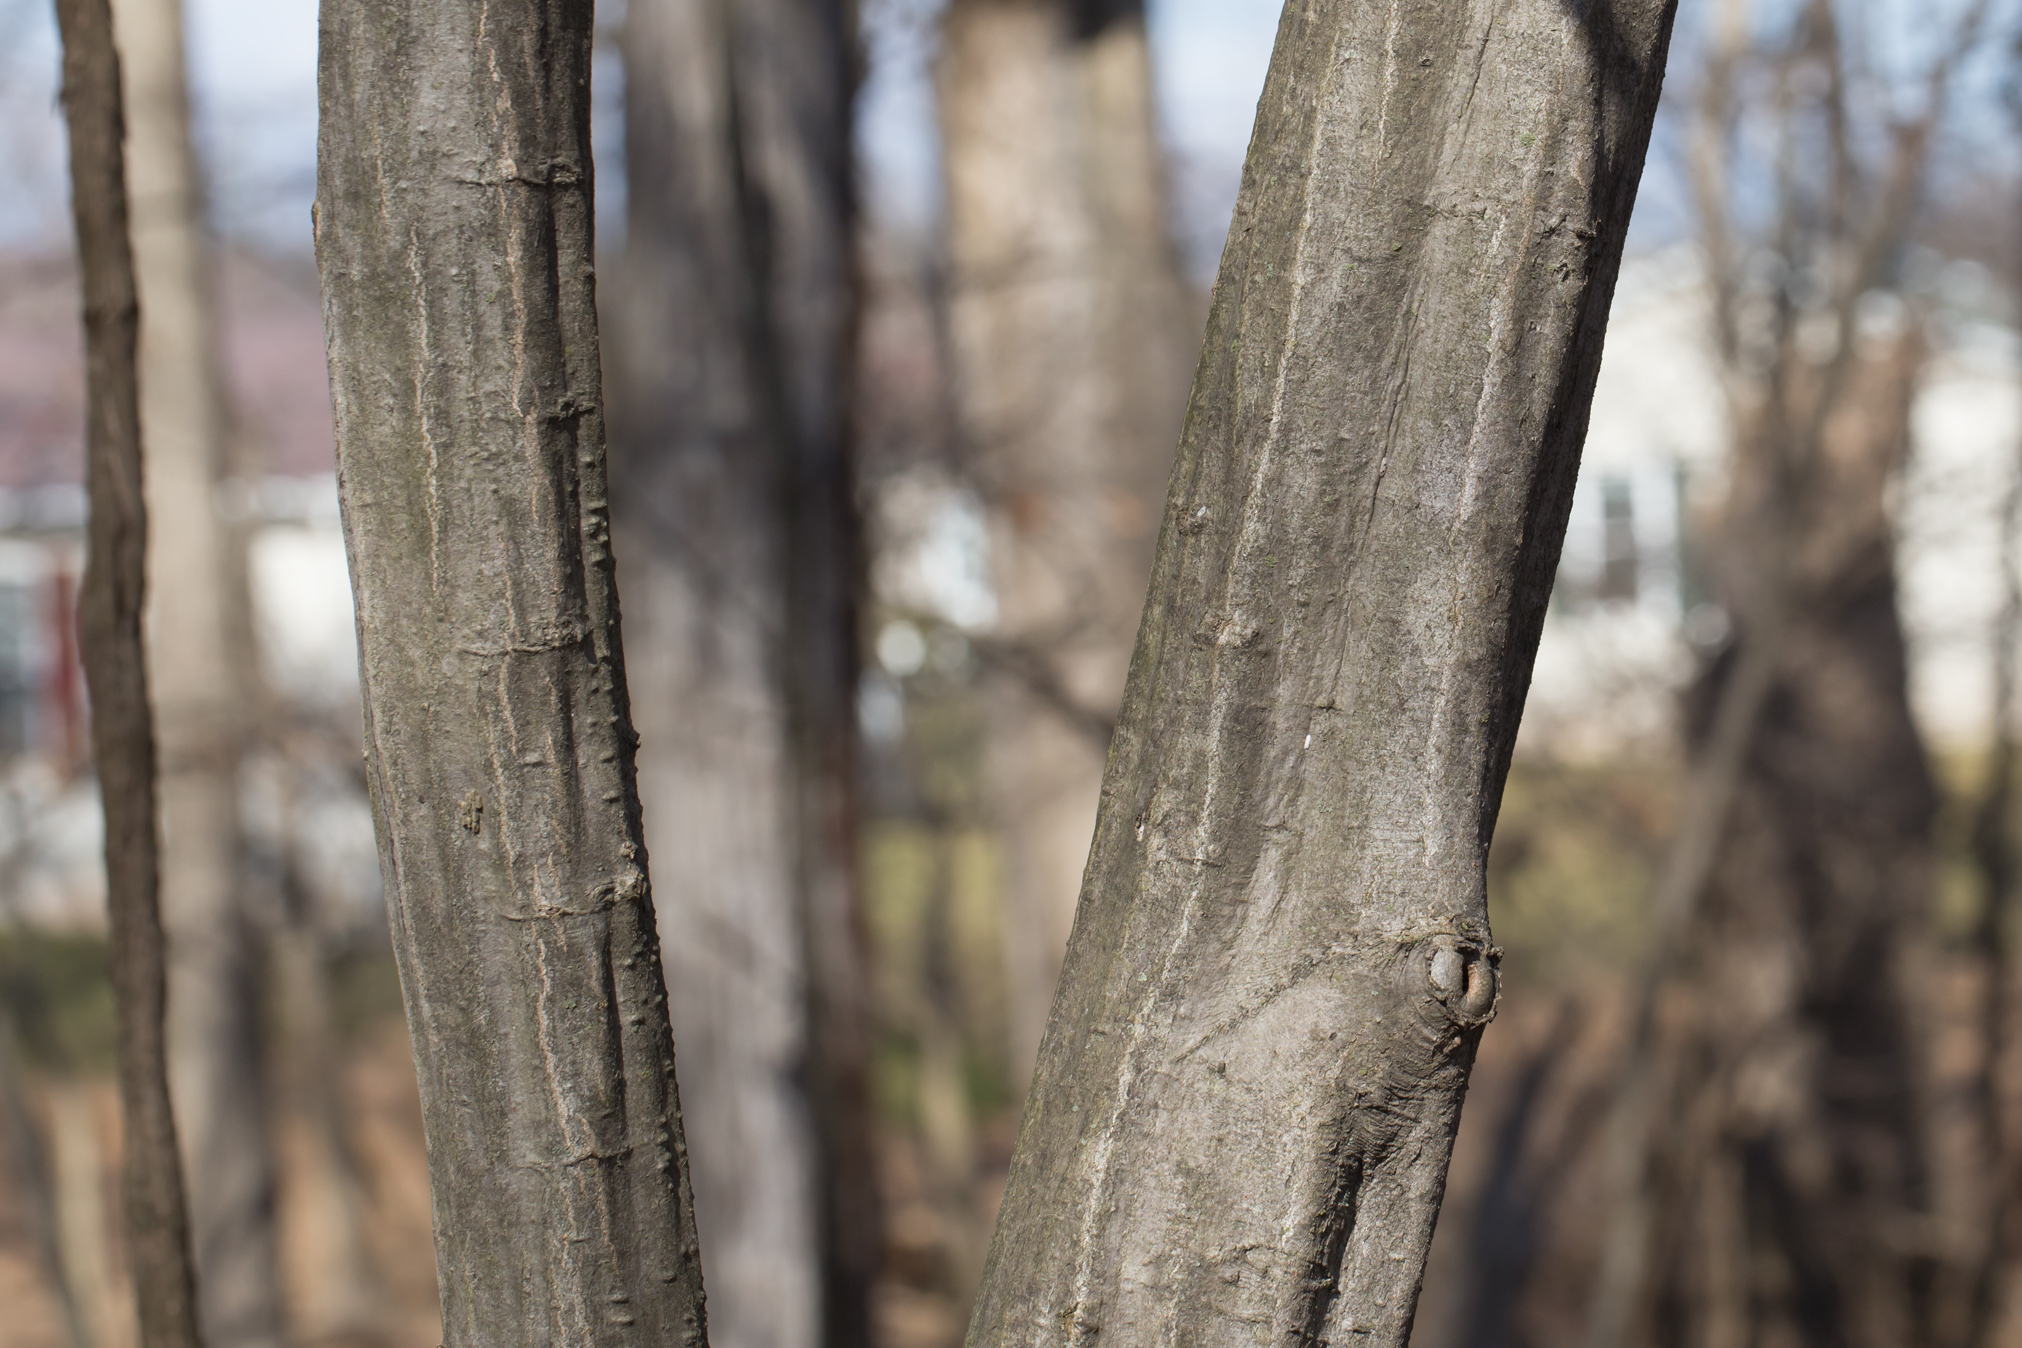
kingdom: Plantae
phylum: Tracheophyta
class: Magnoliopsida
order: Fagales
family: Betulaceae
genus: Carpinus
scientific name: Carpinus caroliniana
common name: American hornbeam
